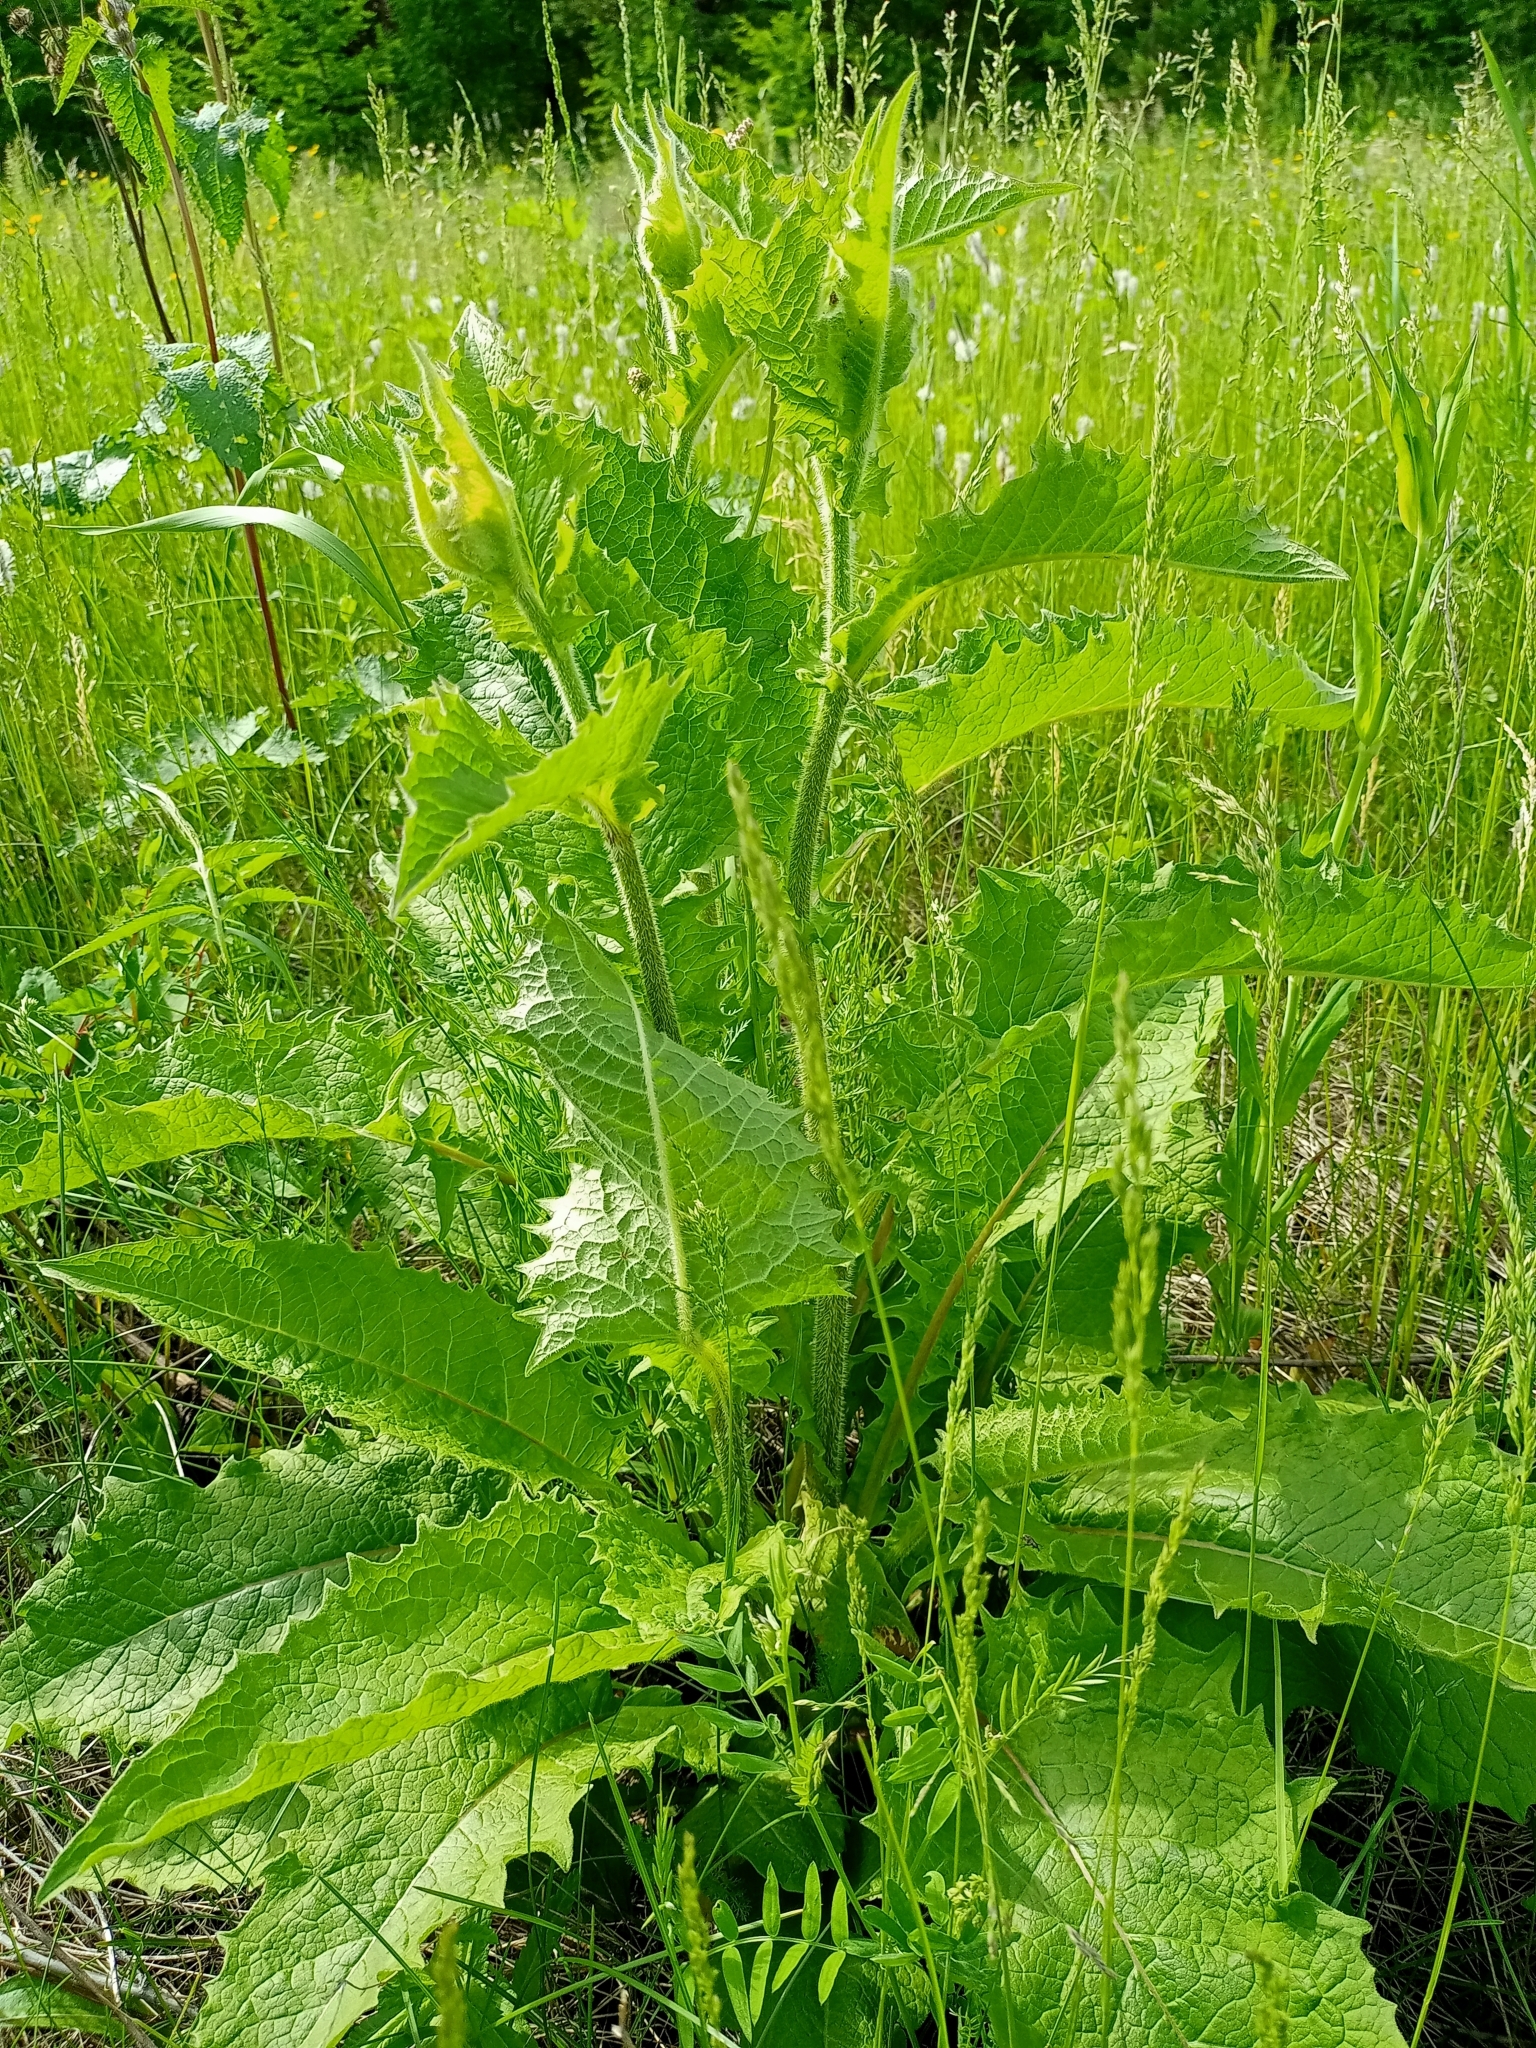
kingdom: Plantae
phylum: Tracheophyta
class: Magnoliopsida
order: Asterales
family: Asteraceae
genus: Crepis
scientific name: Crepis sibirica
